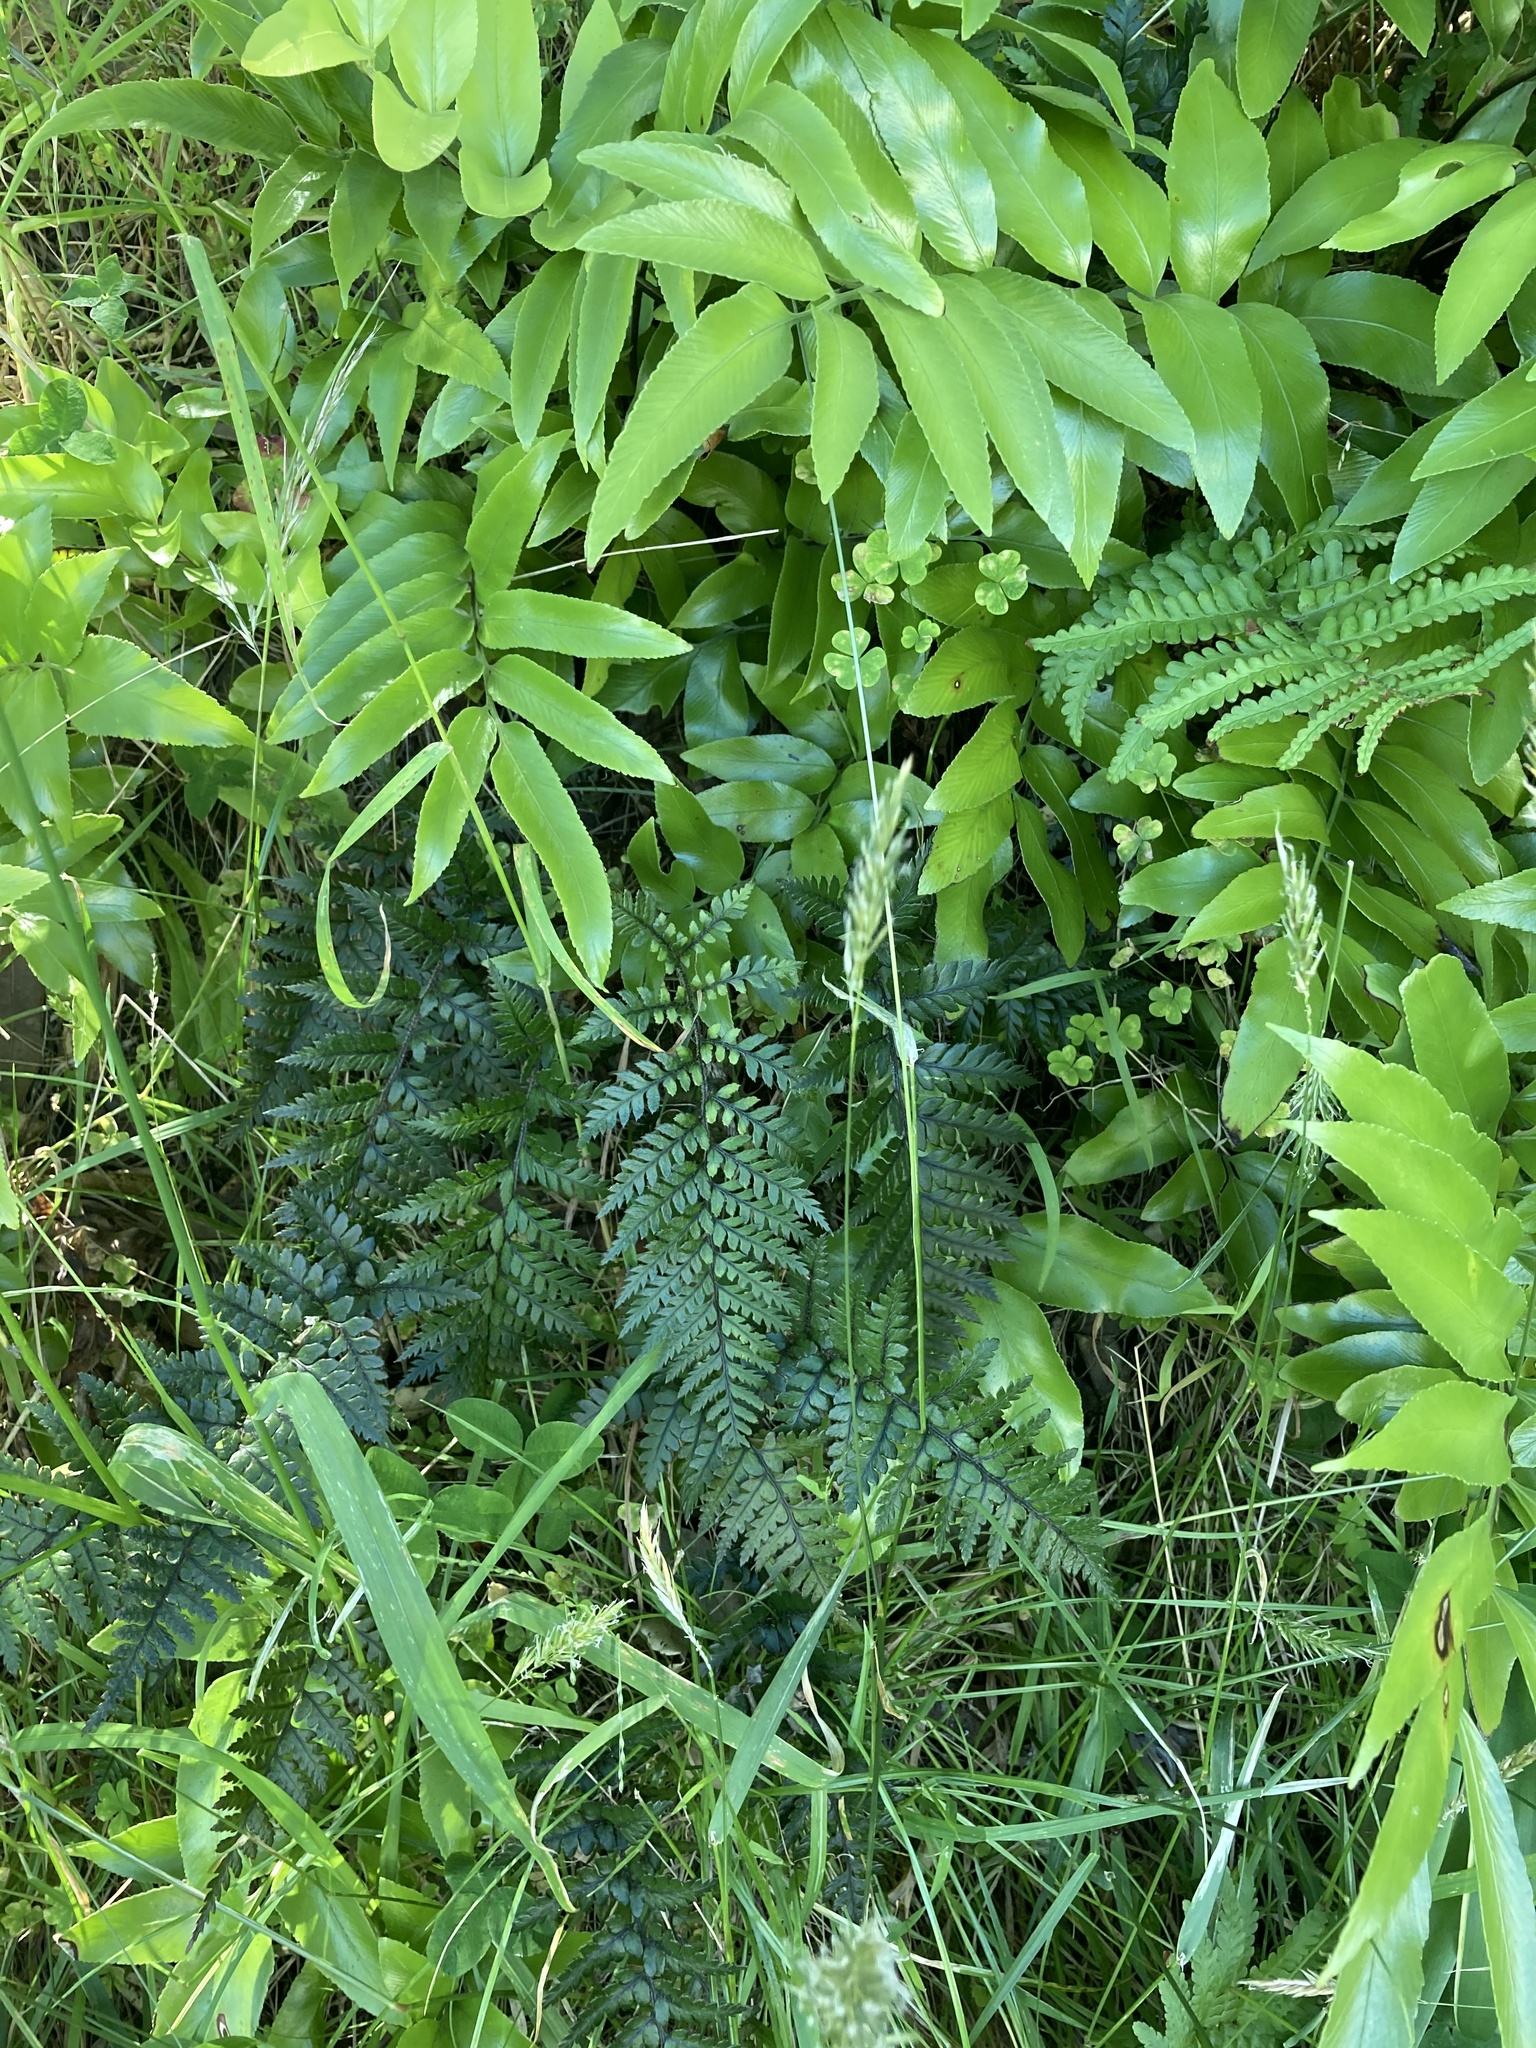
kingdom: Plantae
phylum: Tracheophyta
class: Polypodiopsida
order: Polypodiales
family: Dryopteridaceae
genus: Polystichum
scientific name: Polystichum neozelandicum
